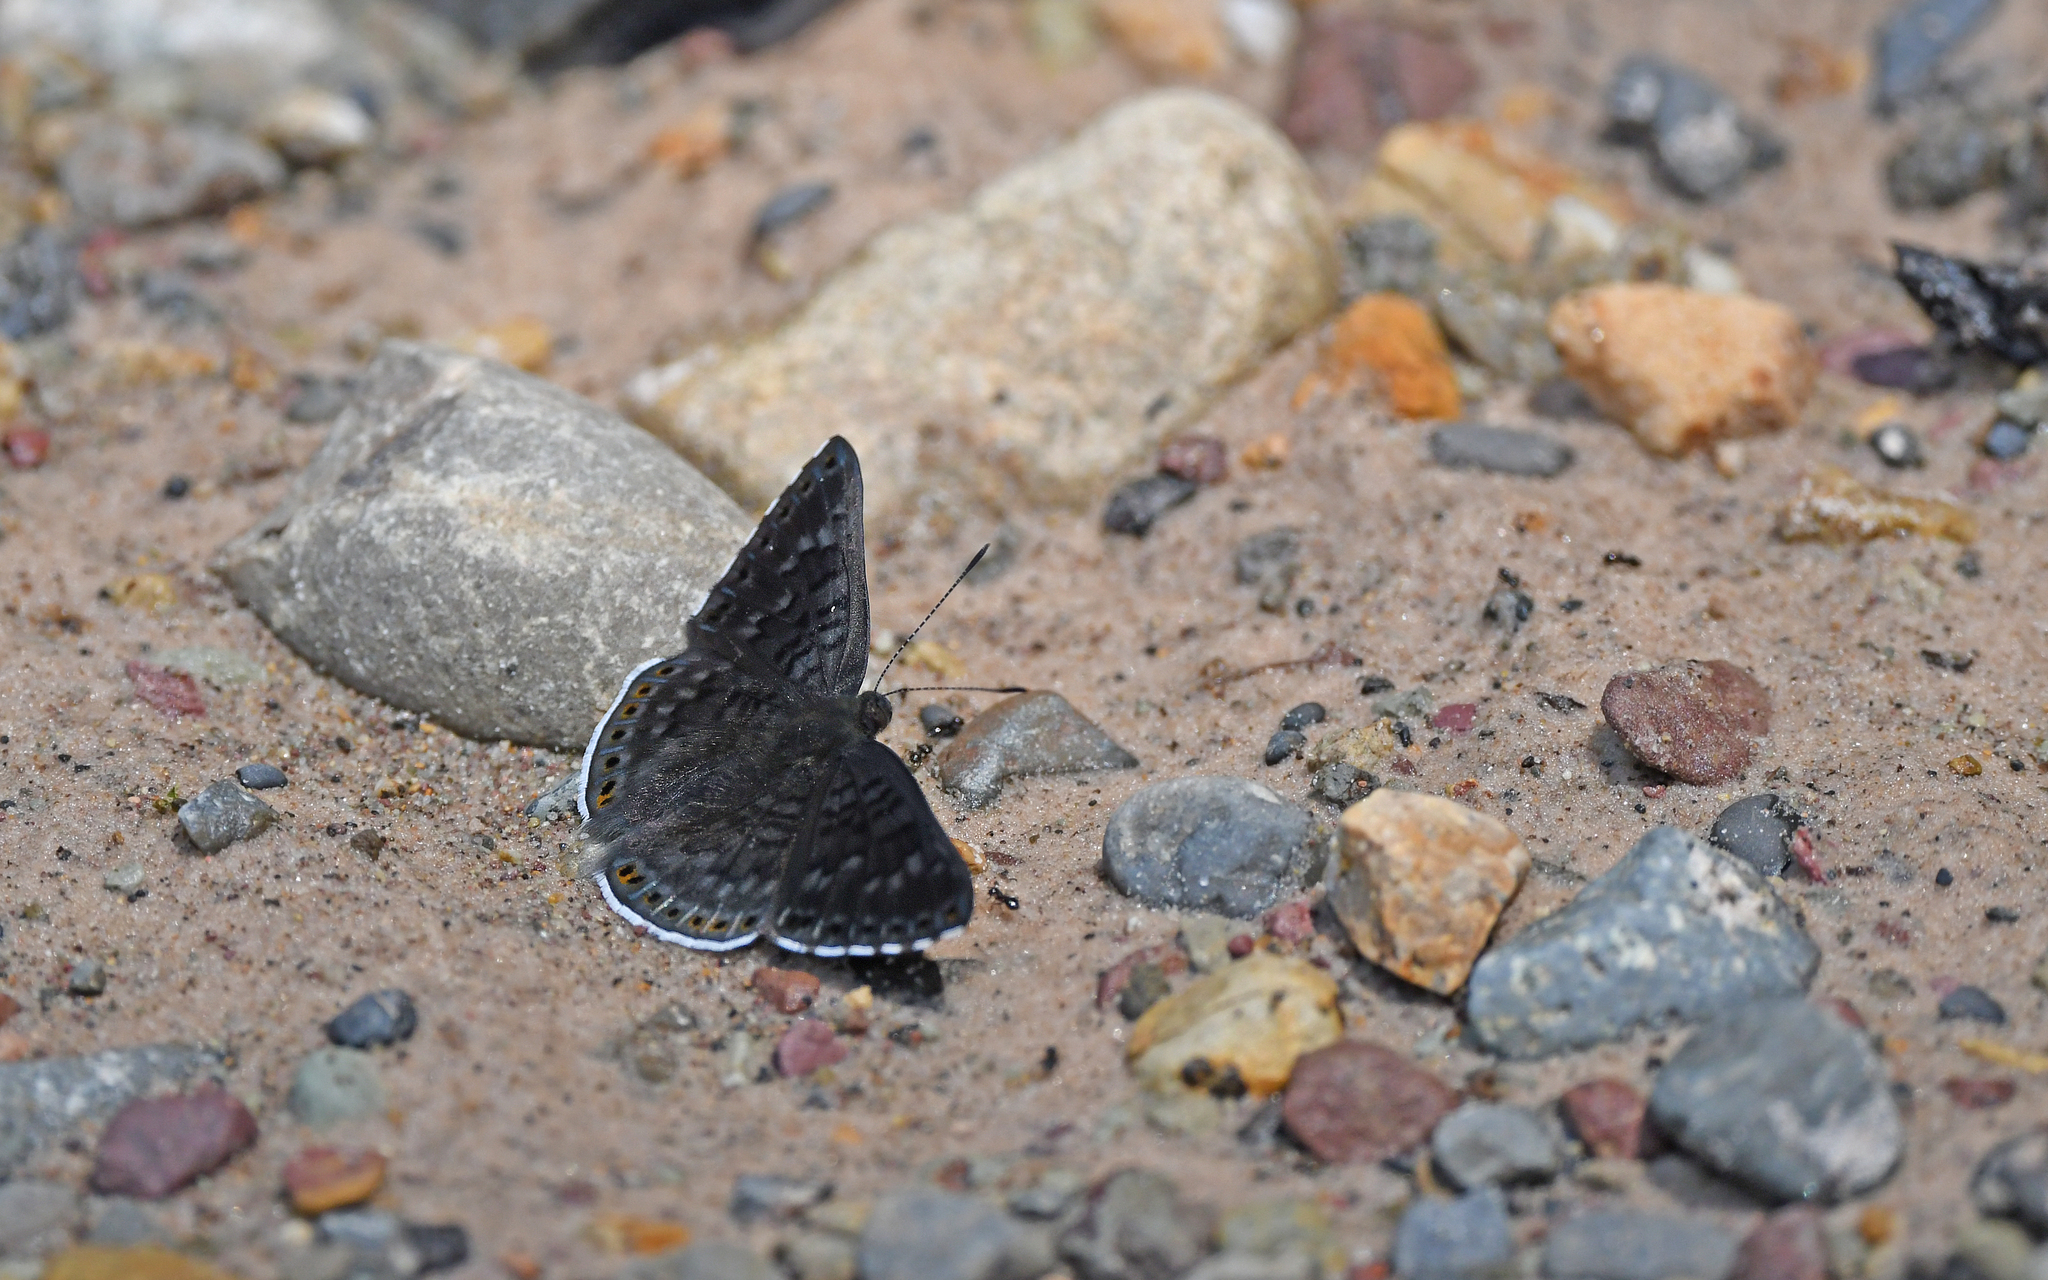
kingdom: Animalia
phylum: Arthropoda
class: Insecta
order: Lepidoptera
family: Riodinidae
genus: Nelone
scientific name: Nelone
